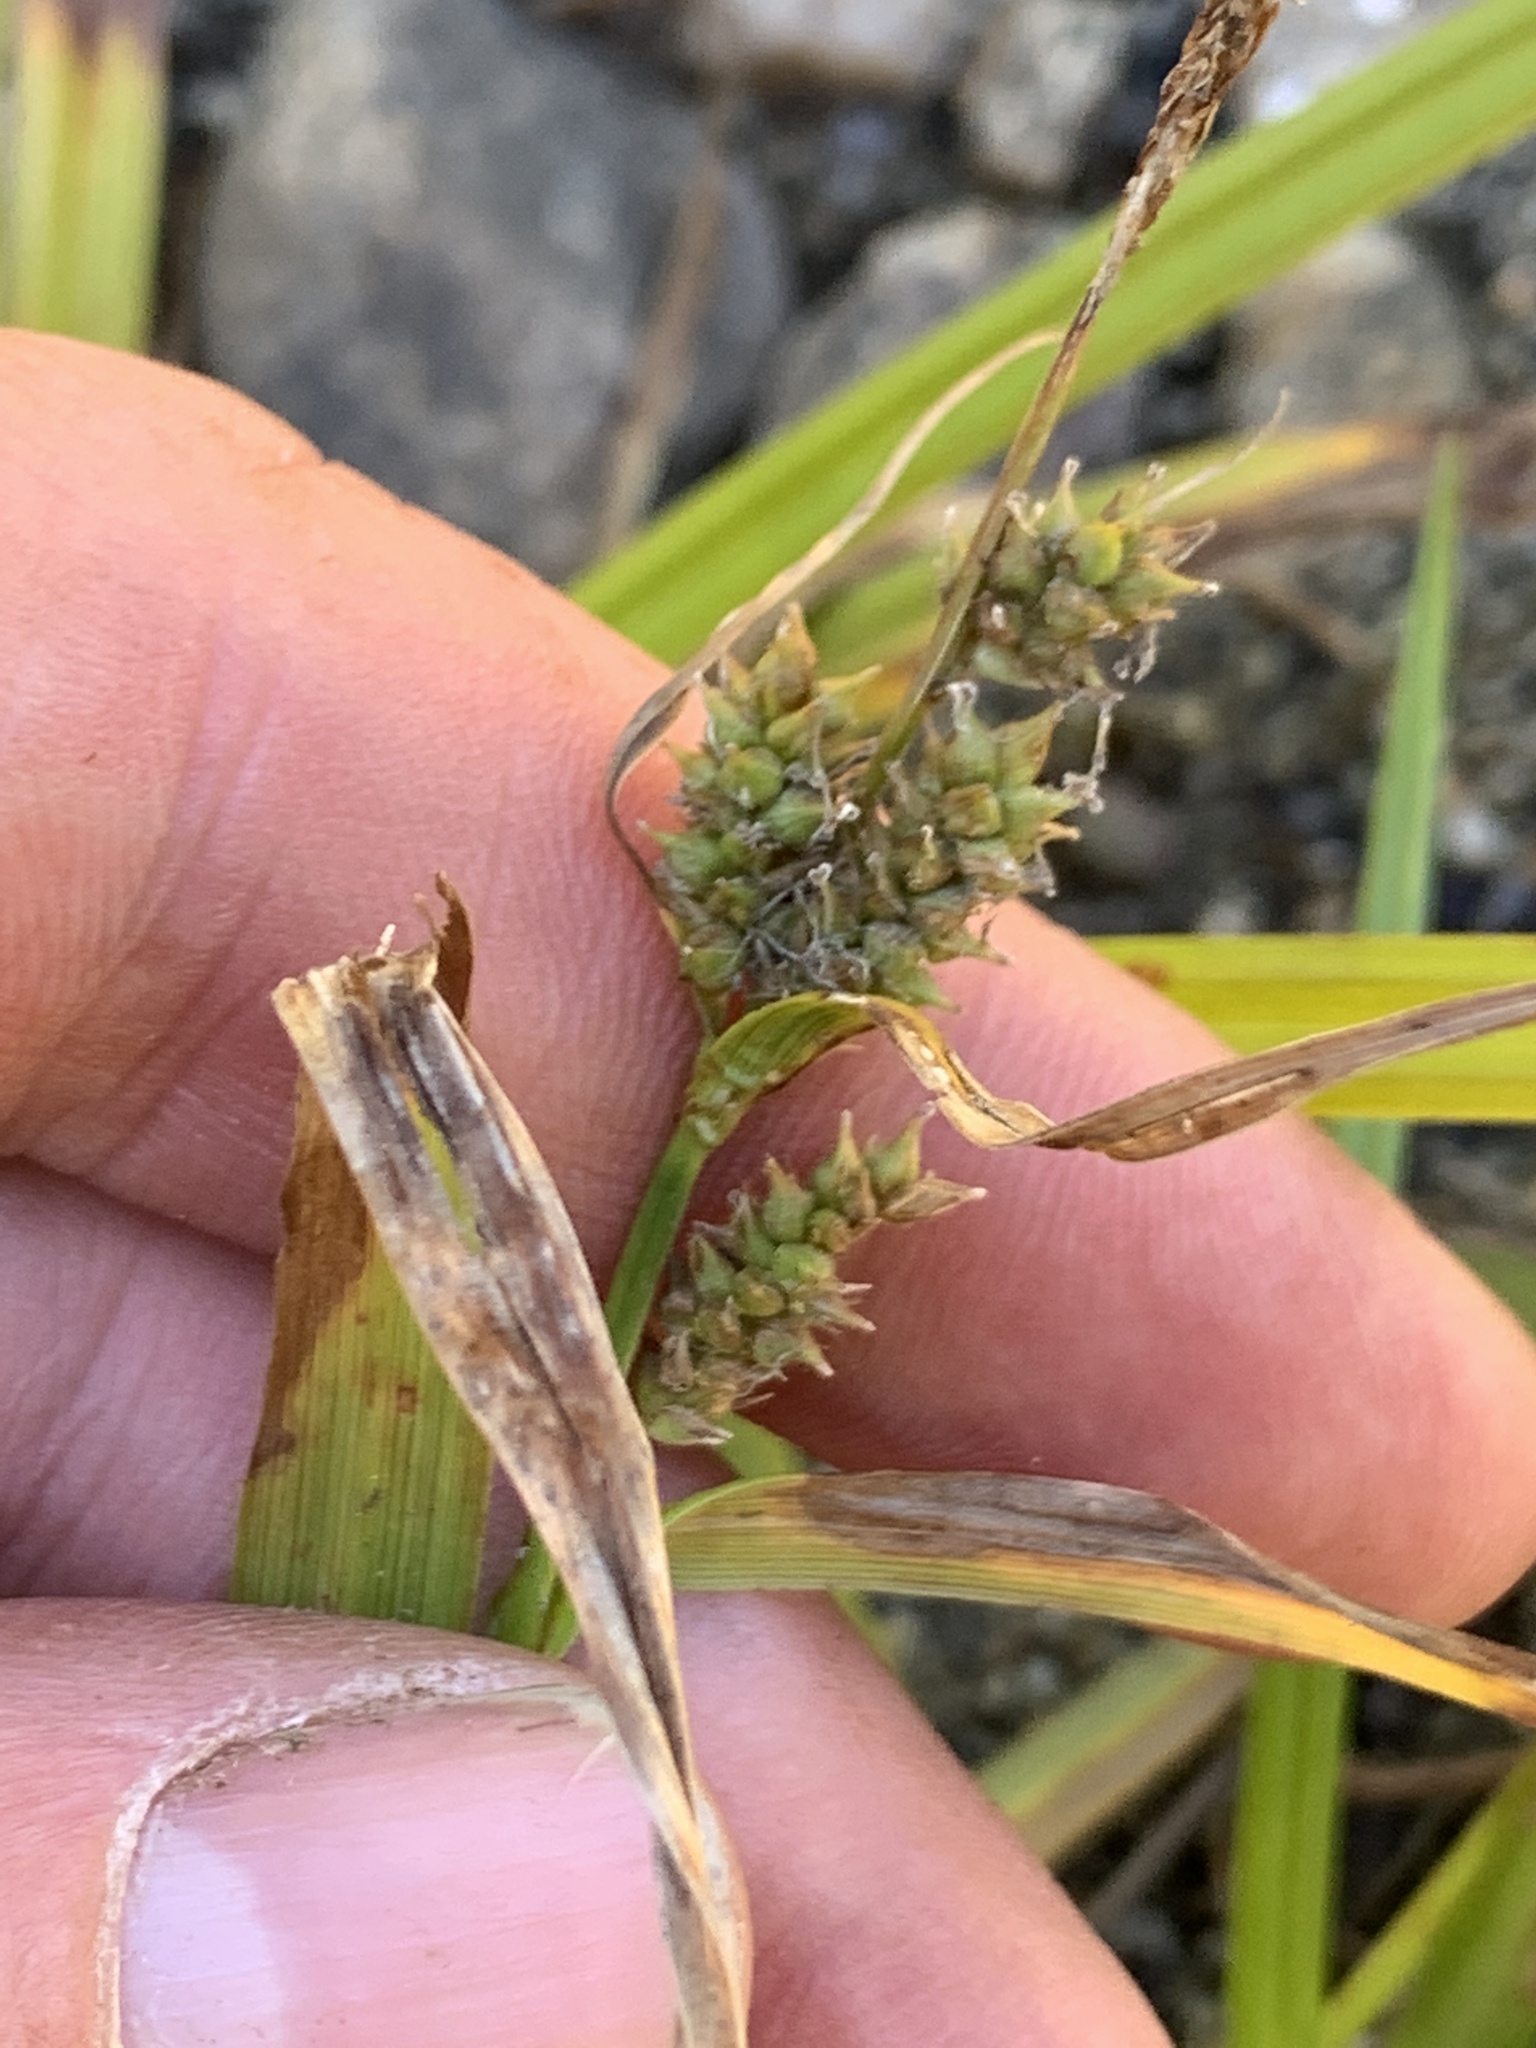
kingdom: Plantae
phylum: Tracheophyta
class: Liliopsida
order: Poales
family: Cyperaceae
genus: Carex
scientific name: Carex scabrata
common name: Eastern rough sedge
